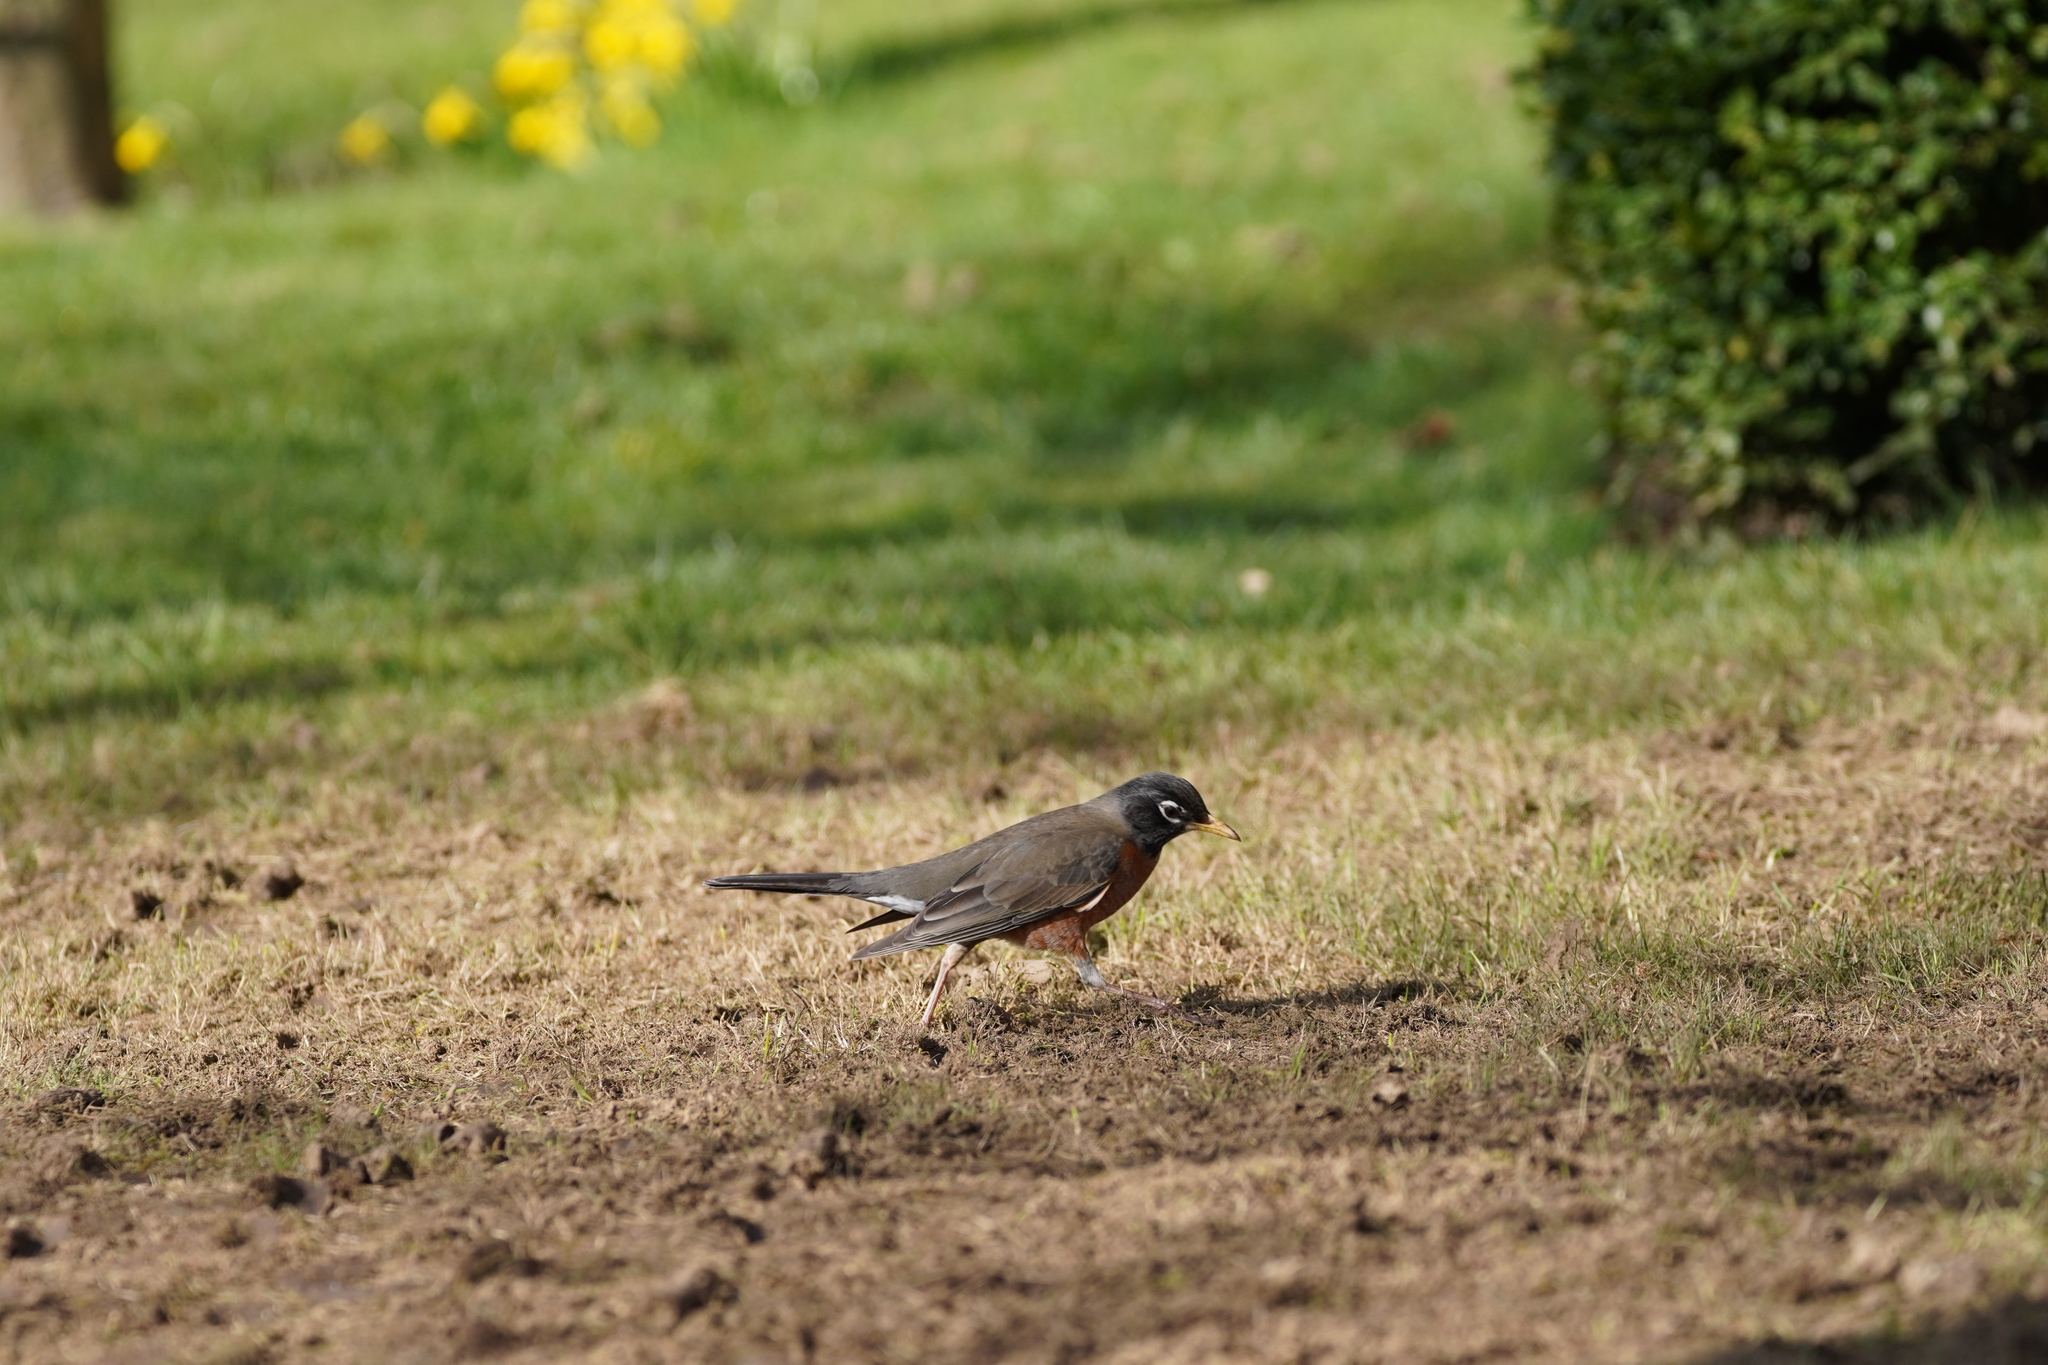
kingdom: Animalia
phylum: Chordata
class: Aves
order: Passeriformes
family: Turdidae
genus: Turdus
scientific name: Turdus migratorius
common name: American robin
